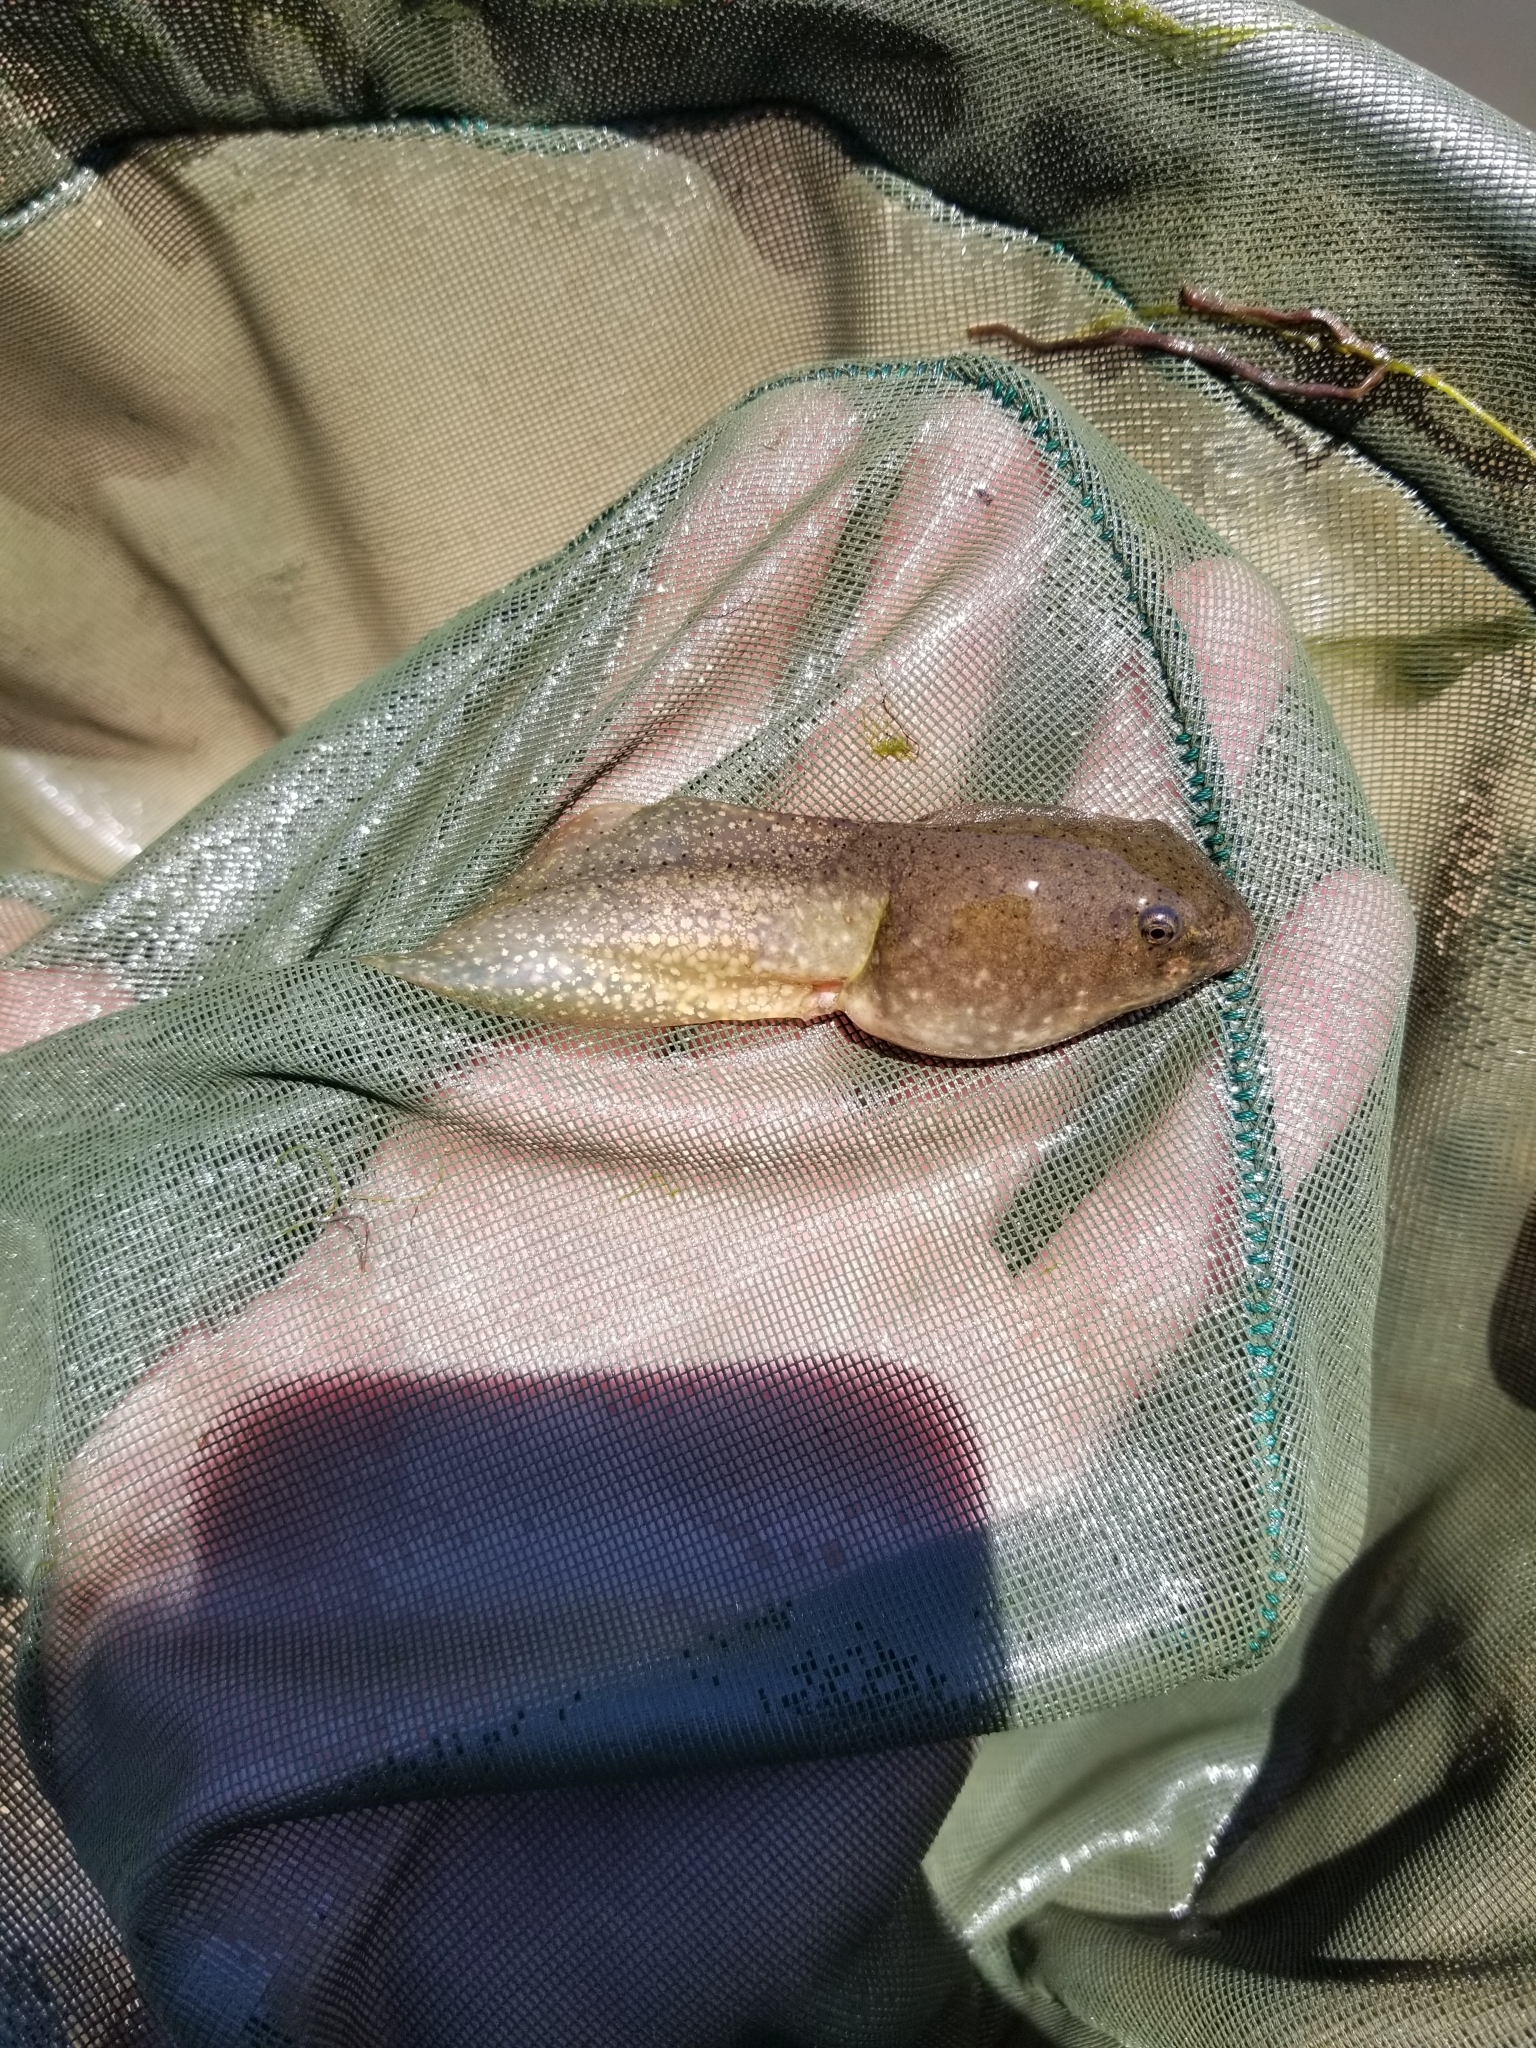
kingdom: Animalia
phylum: Chordata
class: Amphibia
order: Anura
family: Ranidae
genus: Lithobates
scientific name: Lithobates catesbeianus
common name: American bullfrog
